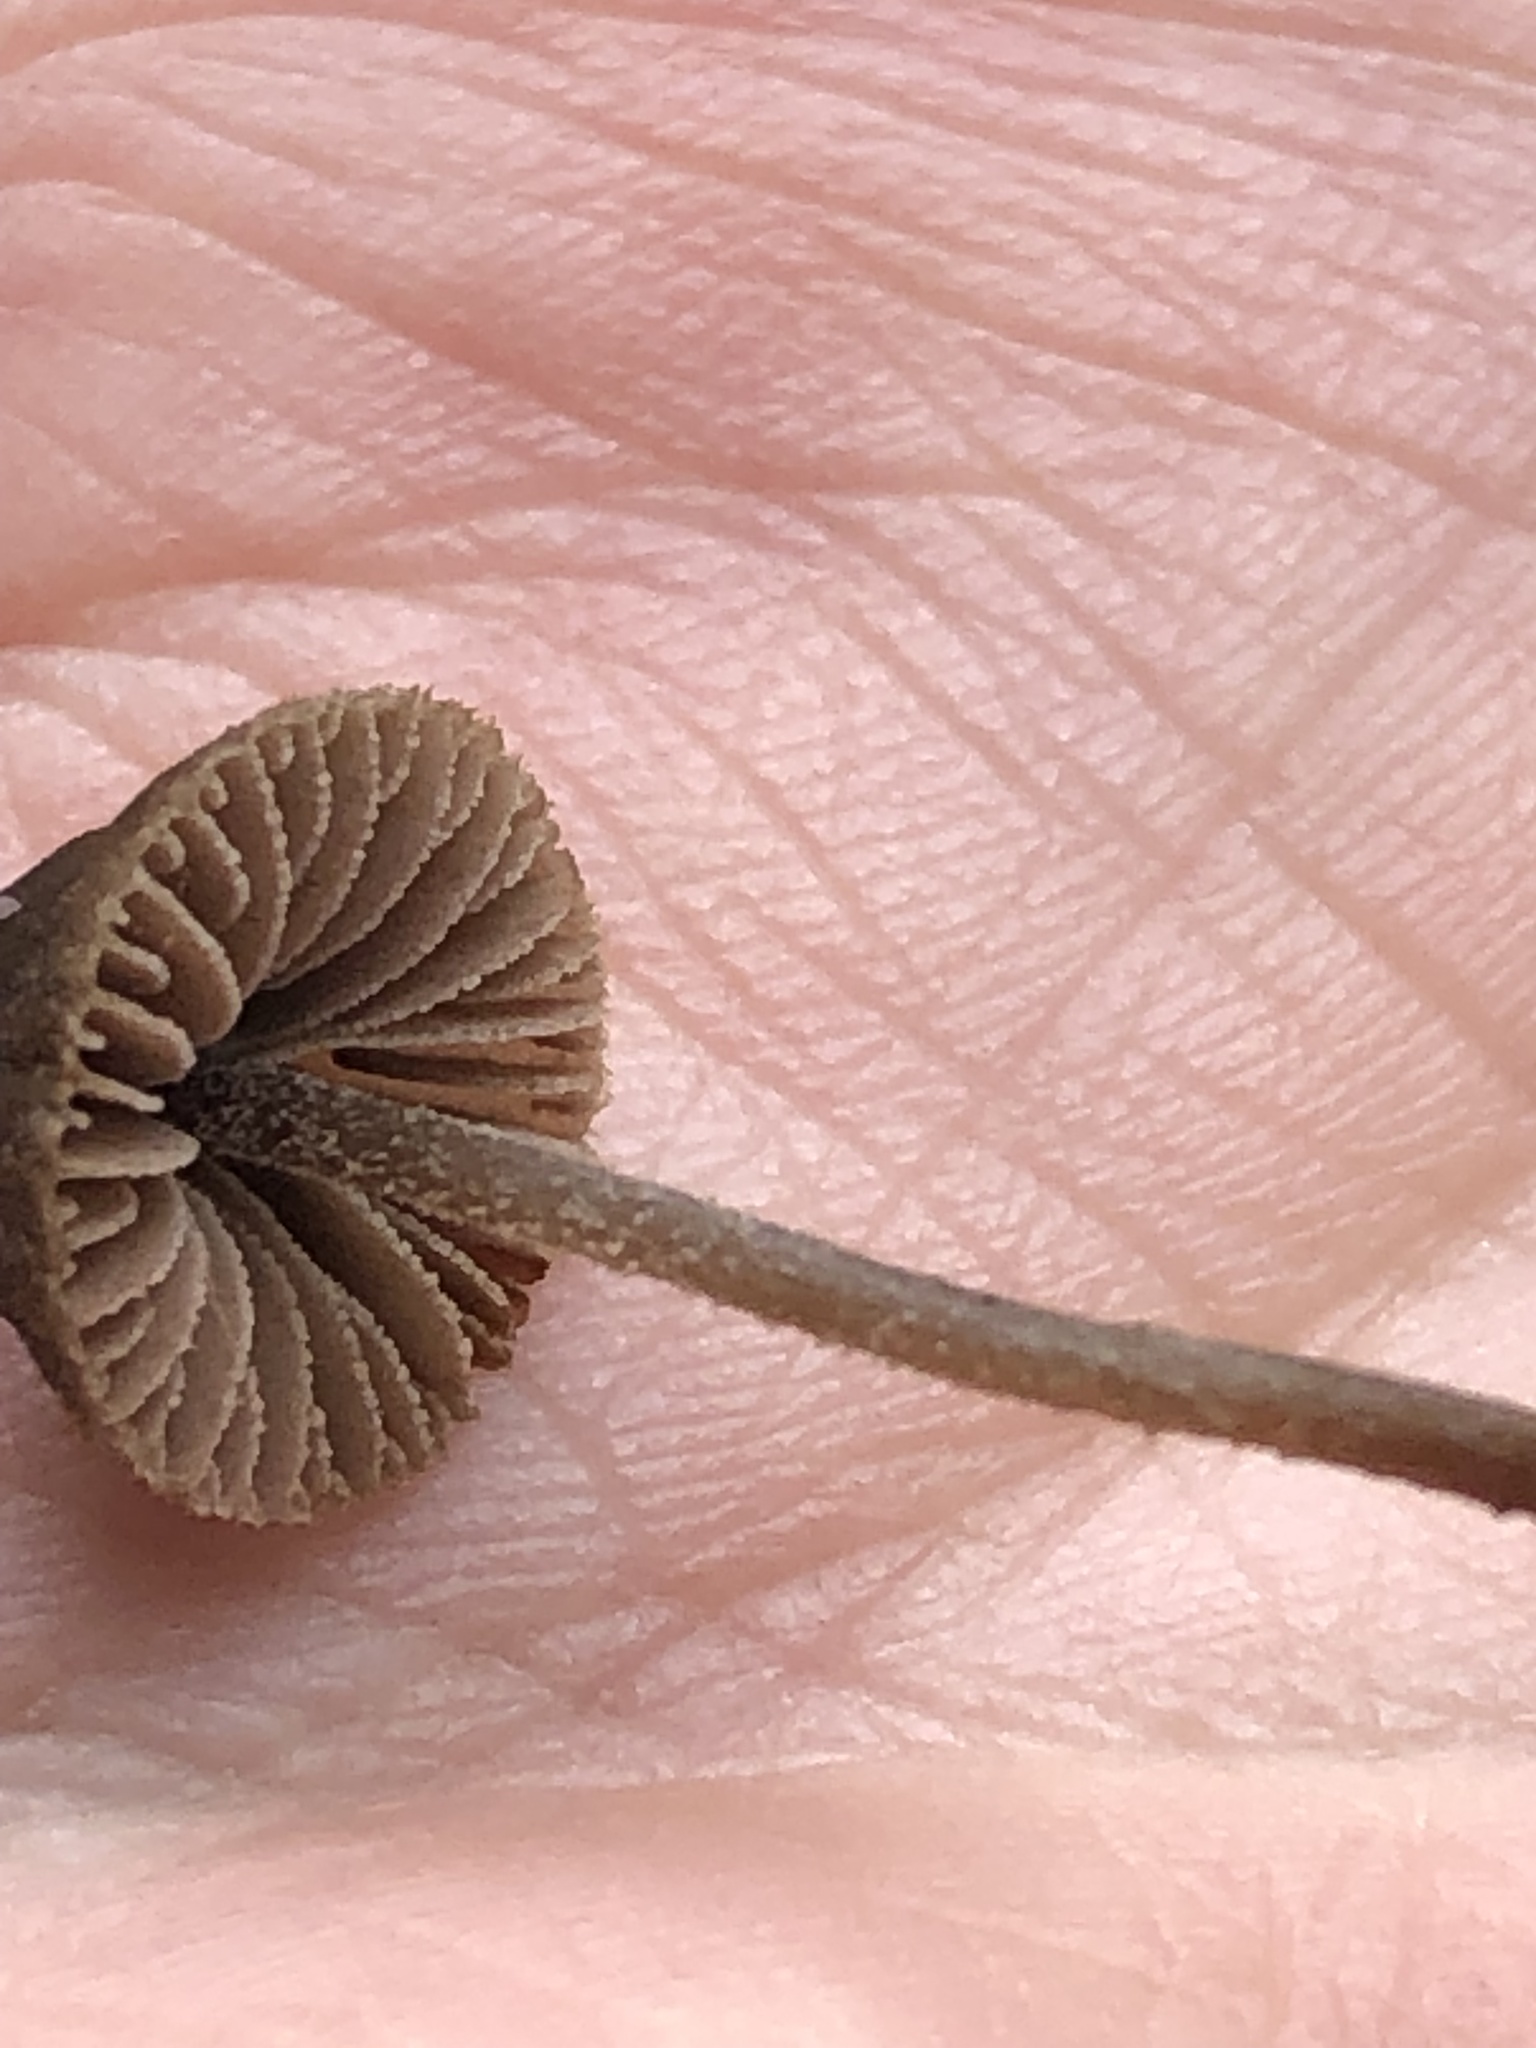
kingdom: Fungi
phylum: Basidiomycota
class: Agaricomycetes
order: Agaricales
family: Entolomataceae
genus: Entoloma
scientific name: Entoloma dysthales
